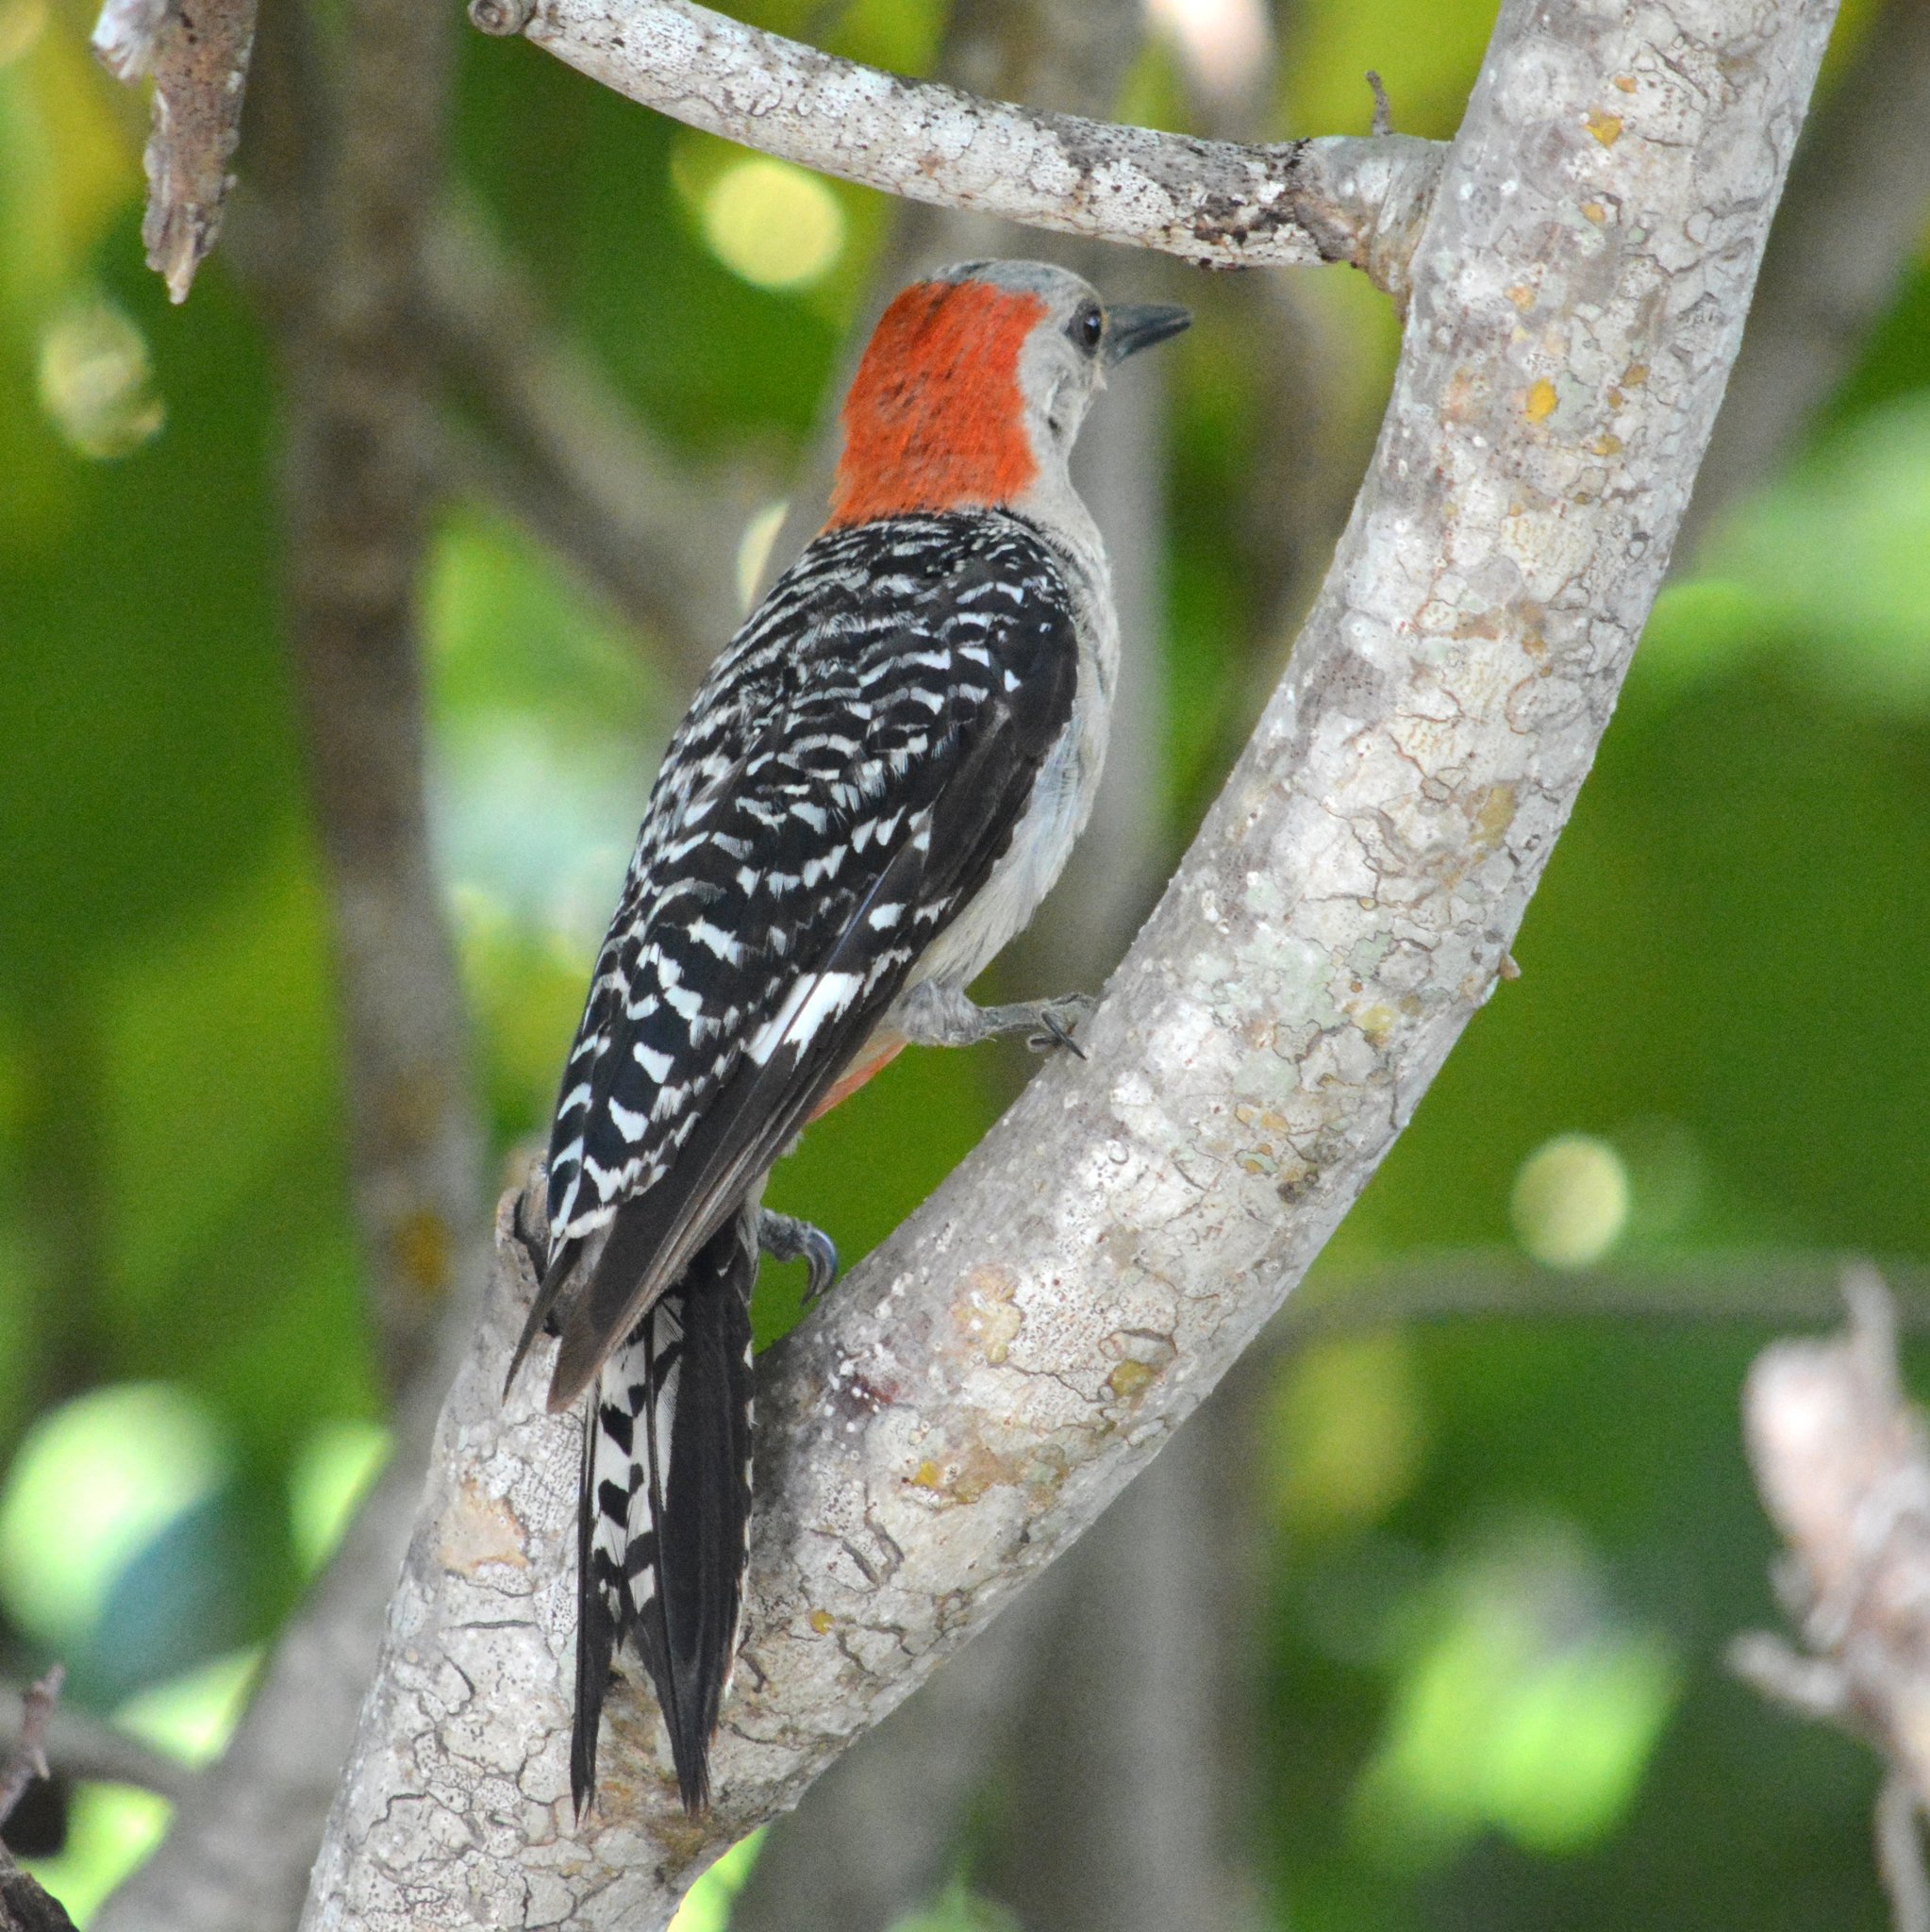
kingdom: Animalia
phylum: Chordata
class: Aves
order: Piciformes
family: Picidae
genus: Melanerpes
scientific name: Melanerpes carolinus
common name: Red-bellied woodpecker
